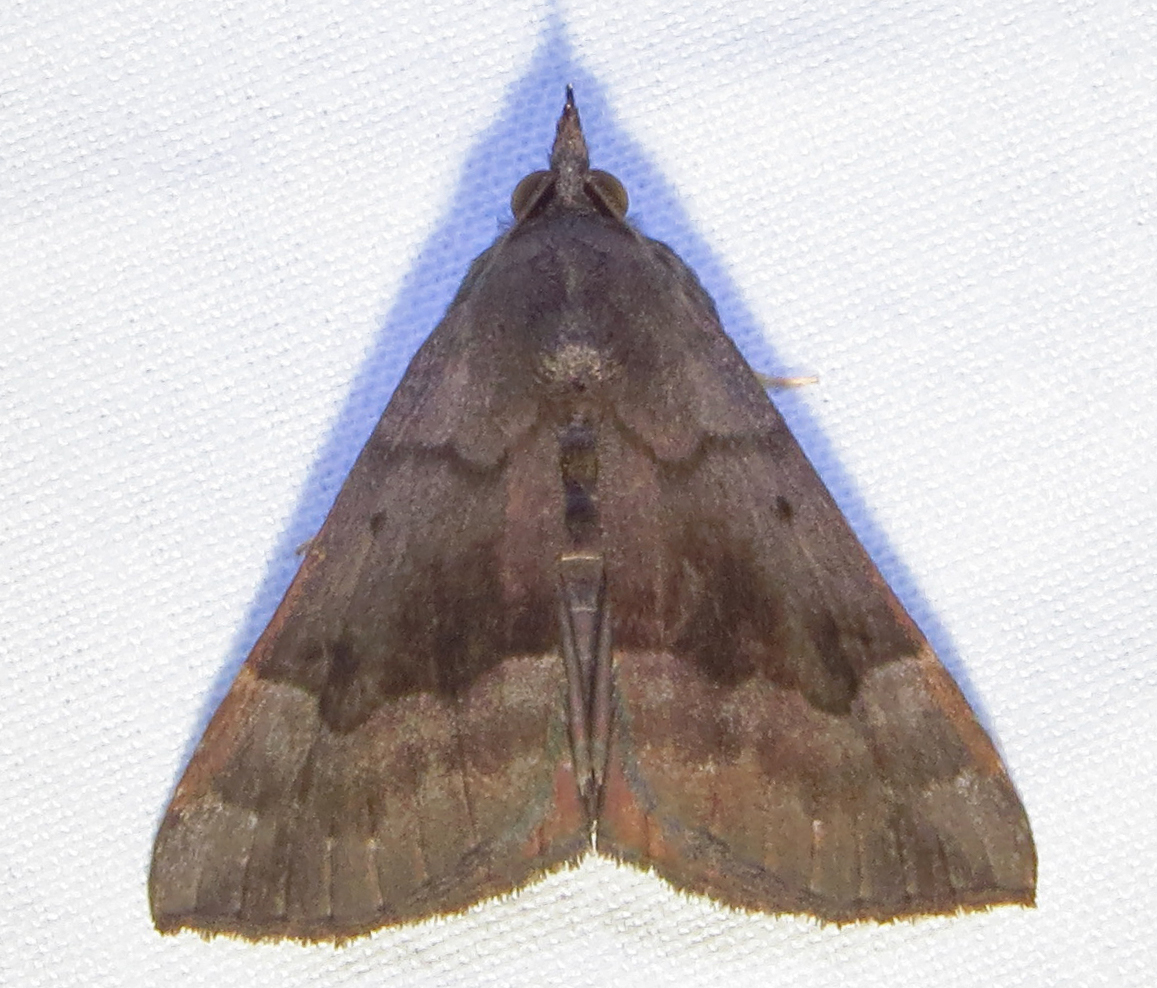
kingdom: Animalia
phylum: Arthropoda
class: Insecta
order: Lepidoptera
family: Erebidae
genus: Hypena
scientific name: Hypena madefactalis
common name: Gray-edged snout
